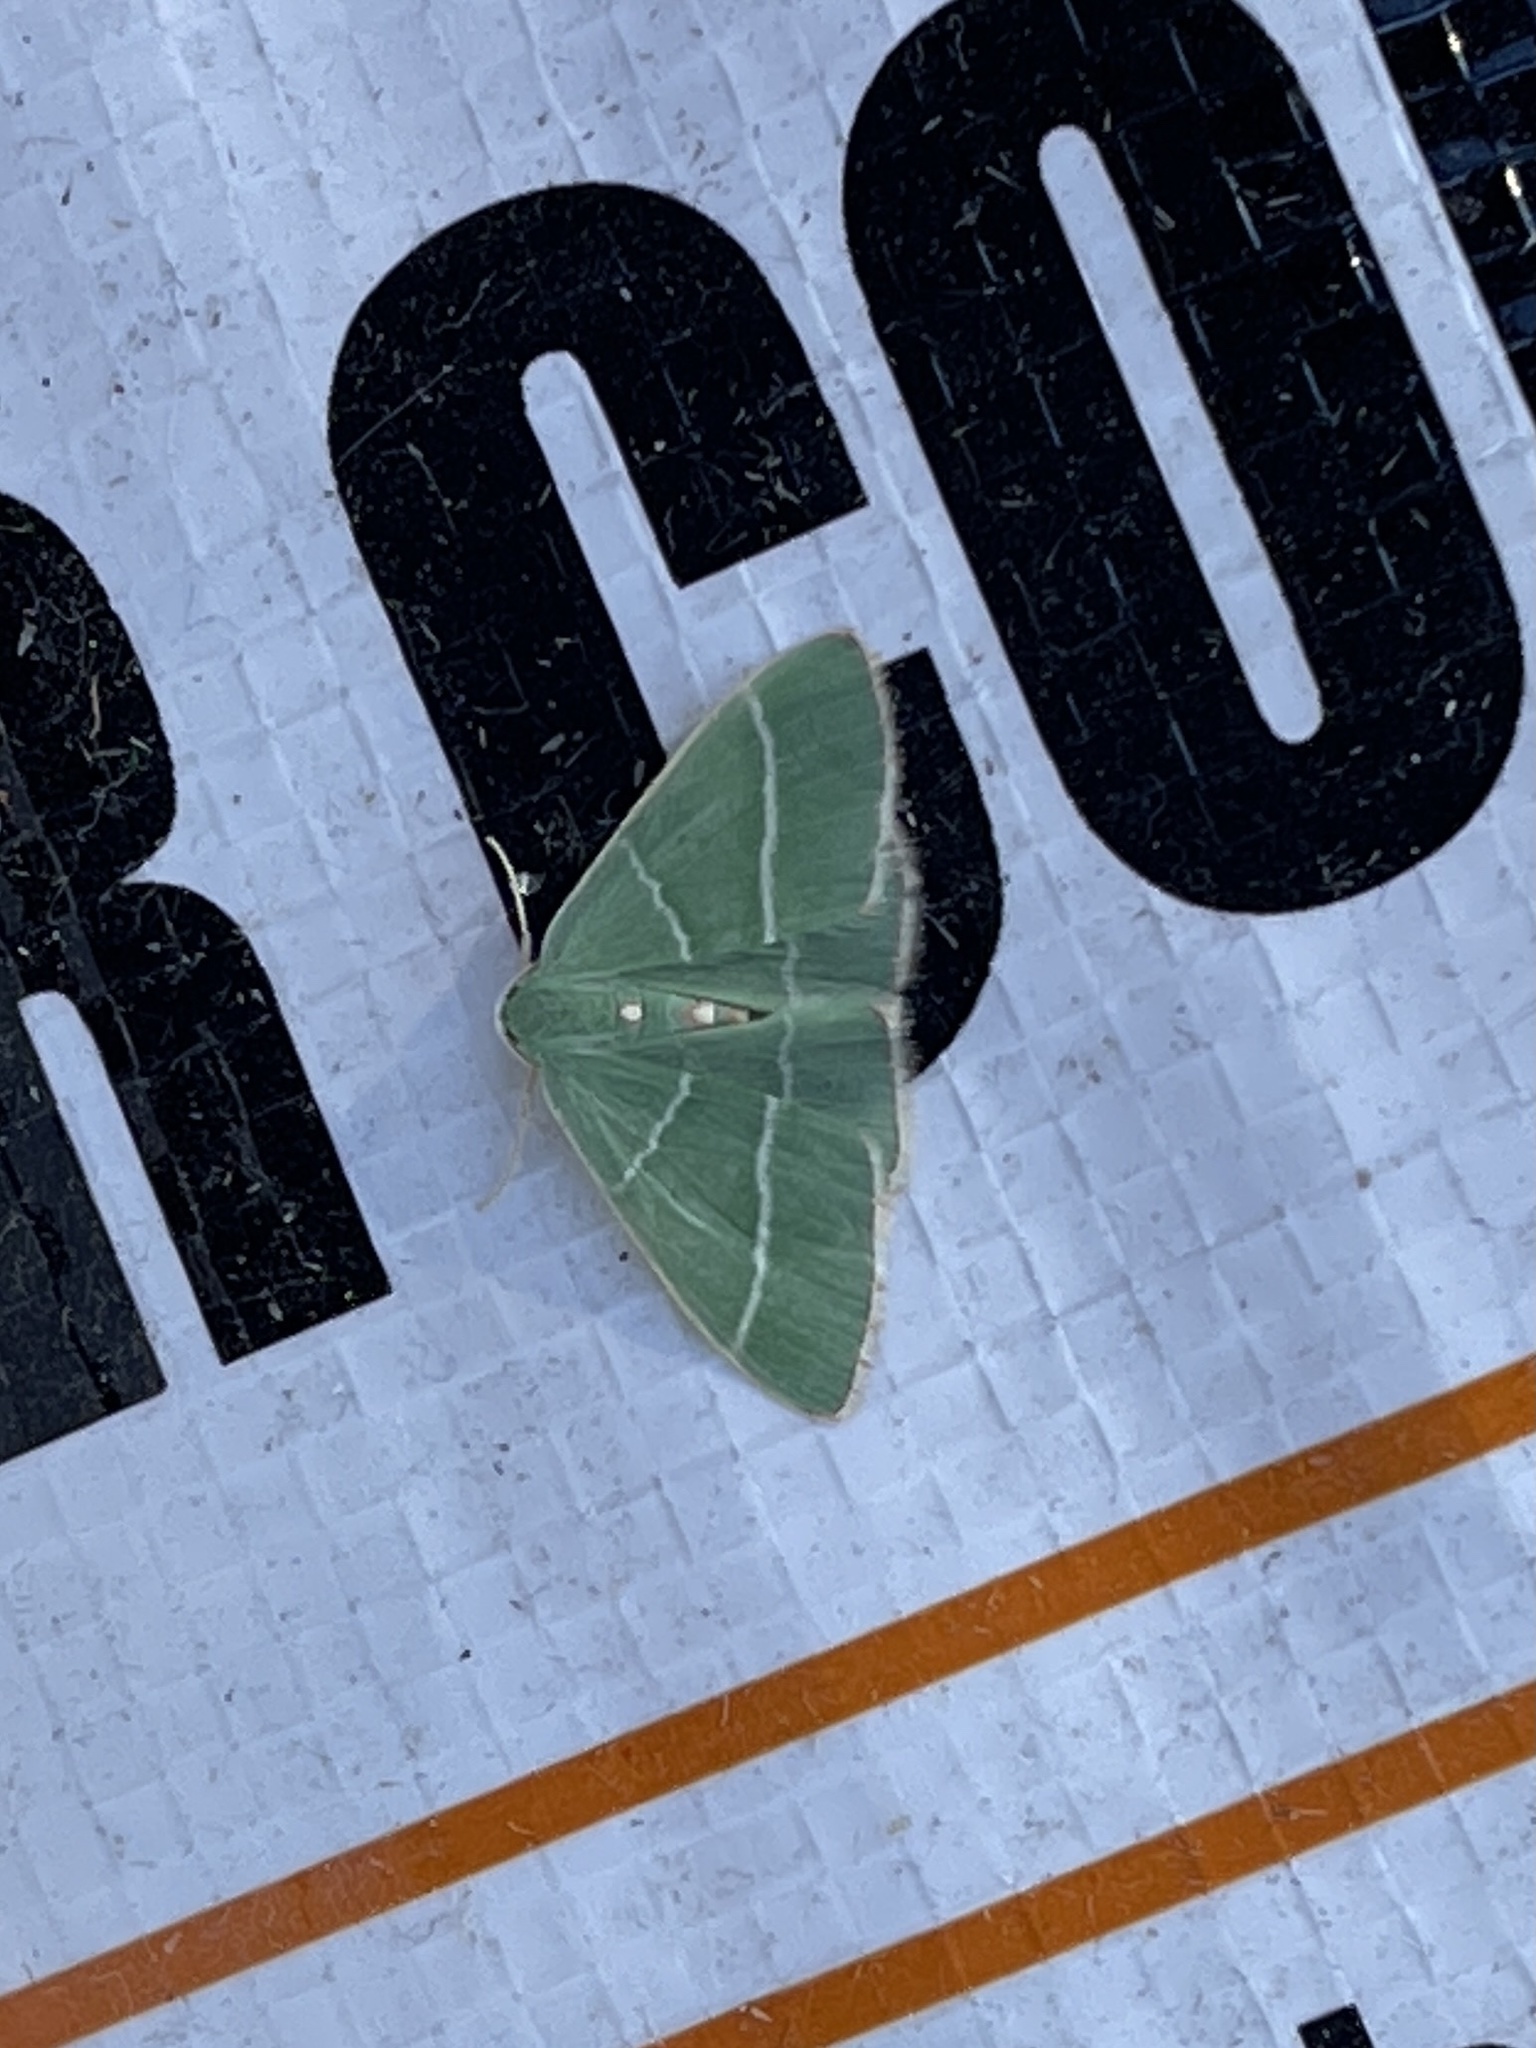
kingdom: Animalia
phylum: Arthropoda
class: Insecta
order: Lepidoptera
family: Geometridae
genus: Nemoria
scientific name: Nemoria obliqua
